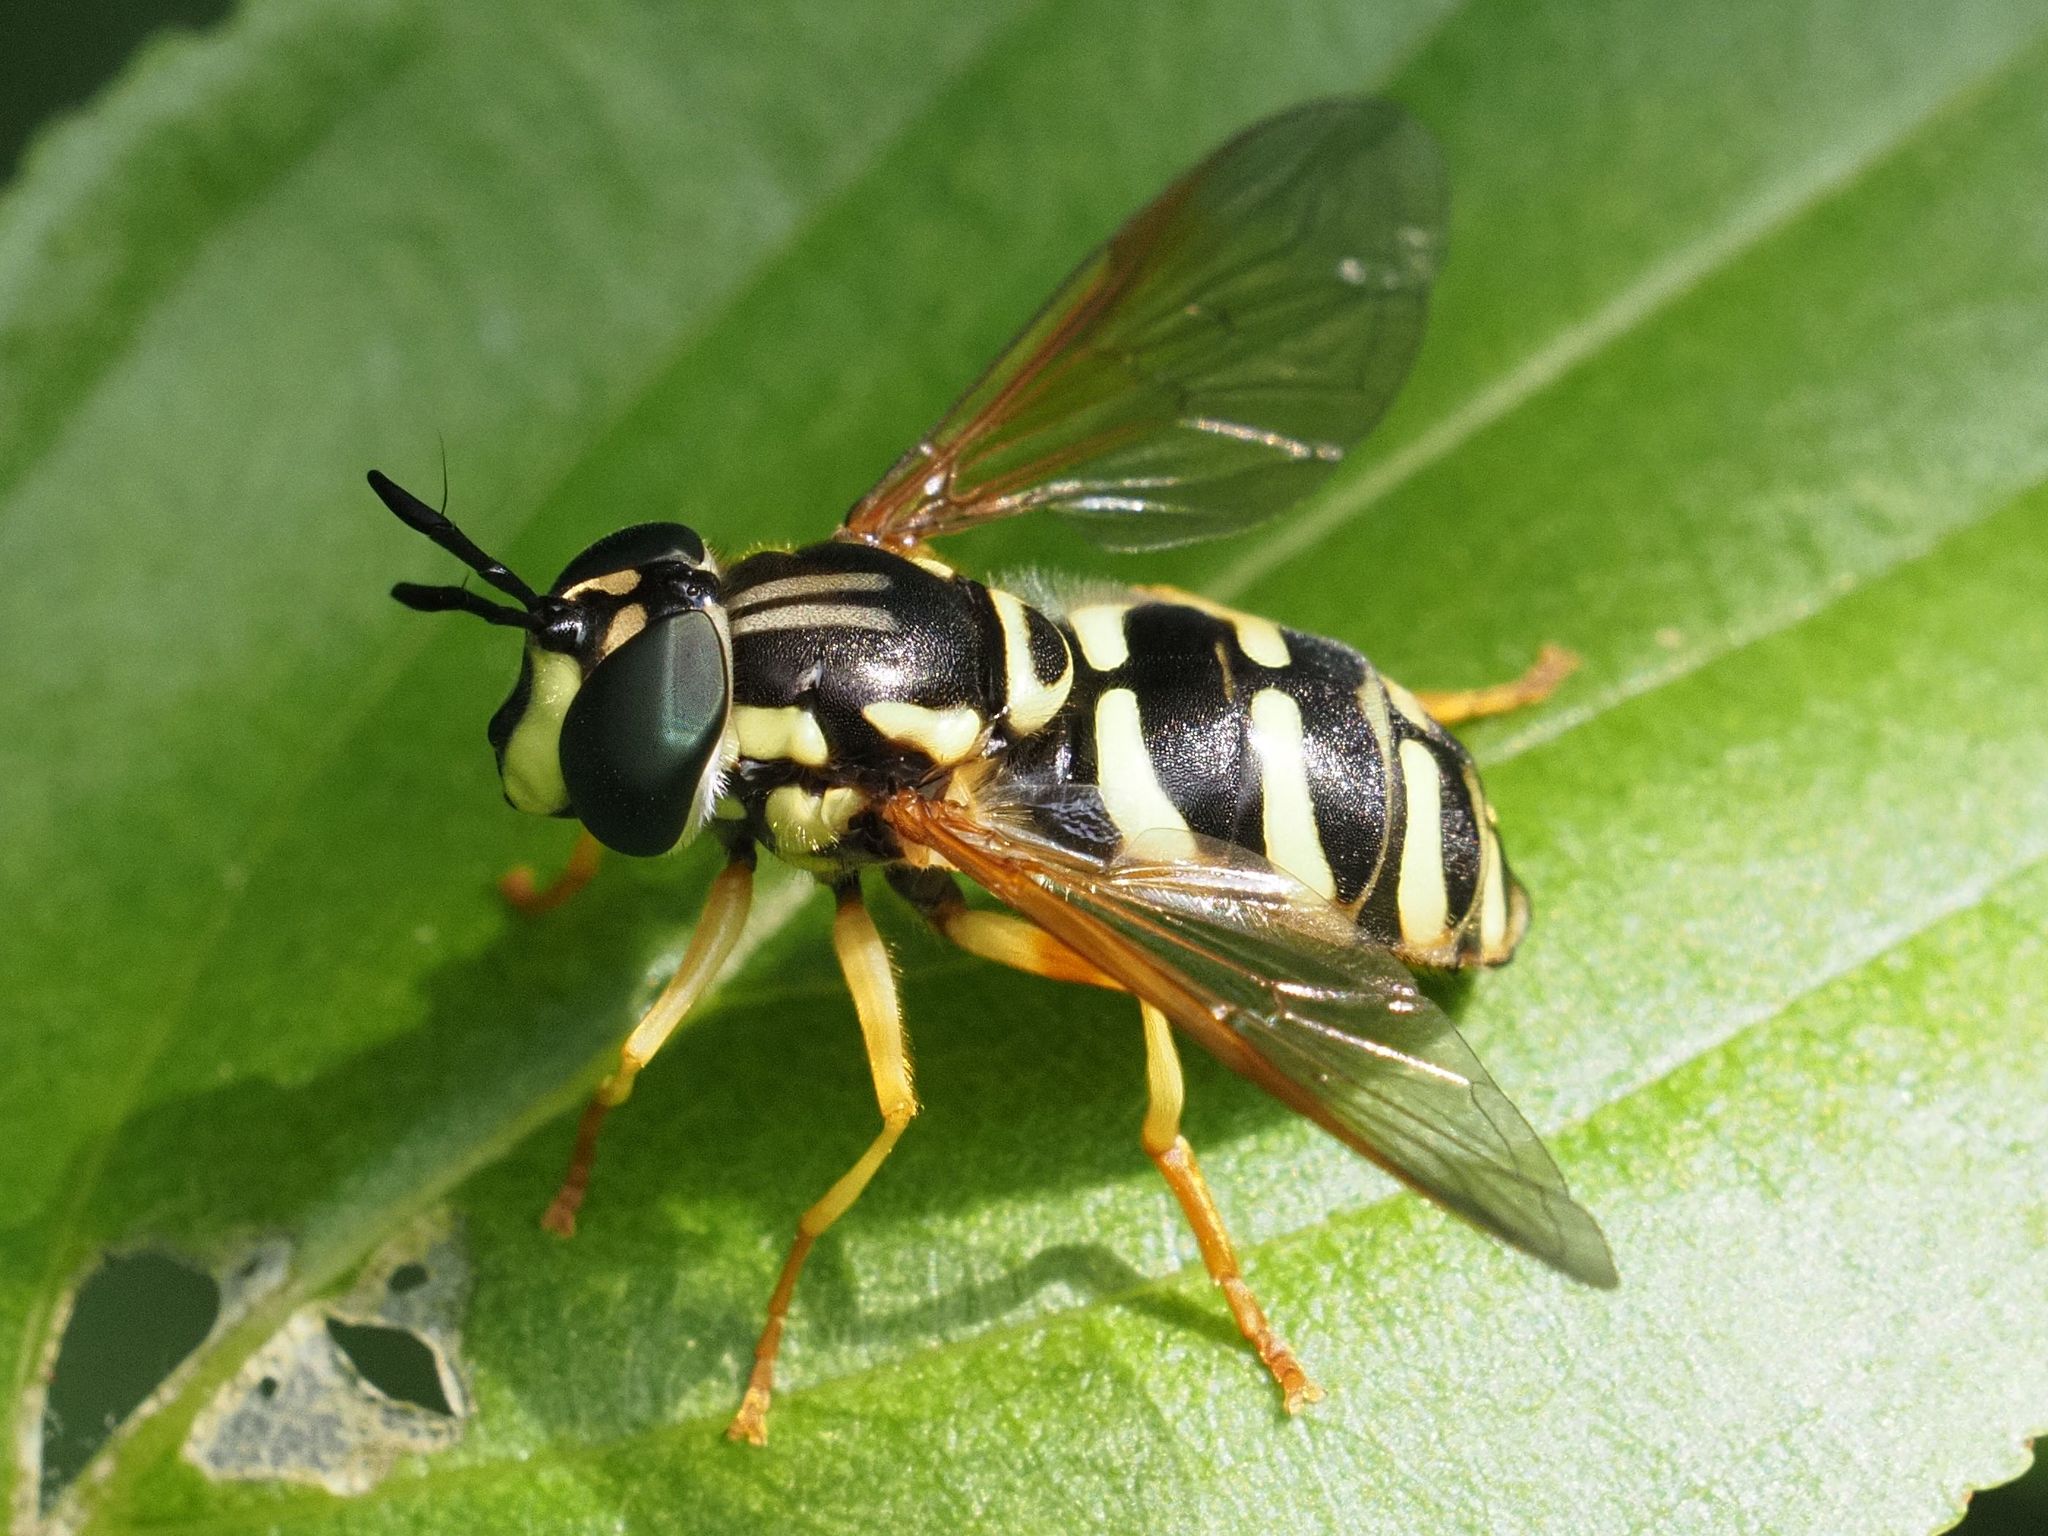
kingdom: Animalia
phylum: Arthropoda
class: Insecta
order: Diptera
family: Syrphidae
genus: Chrysotoxum
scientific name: Chrysotoxum elegans
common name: Zipperback
